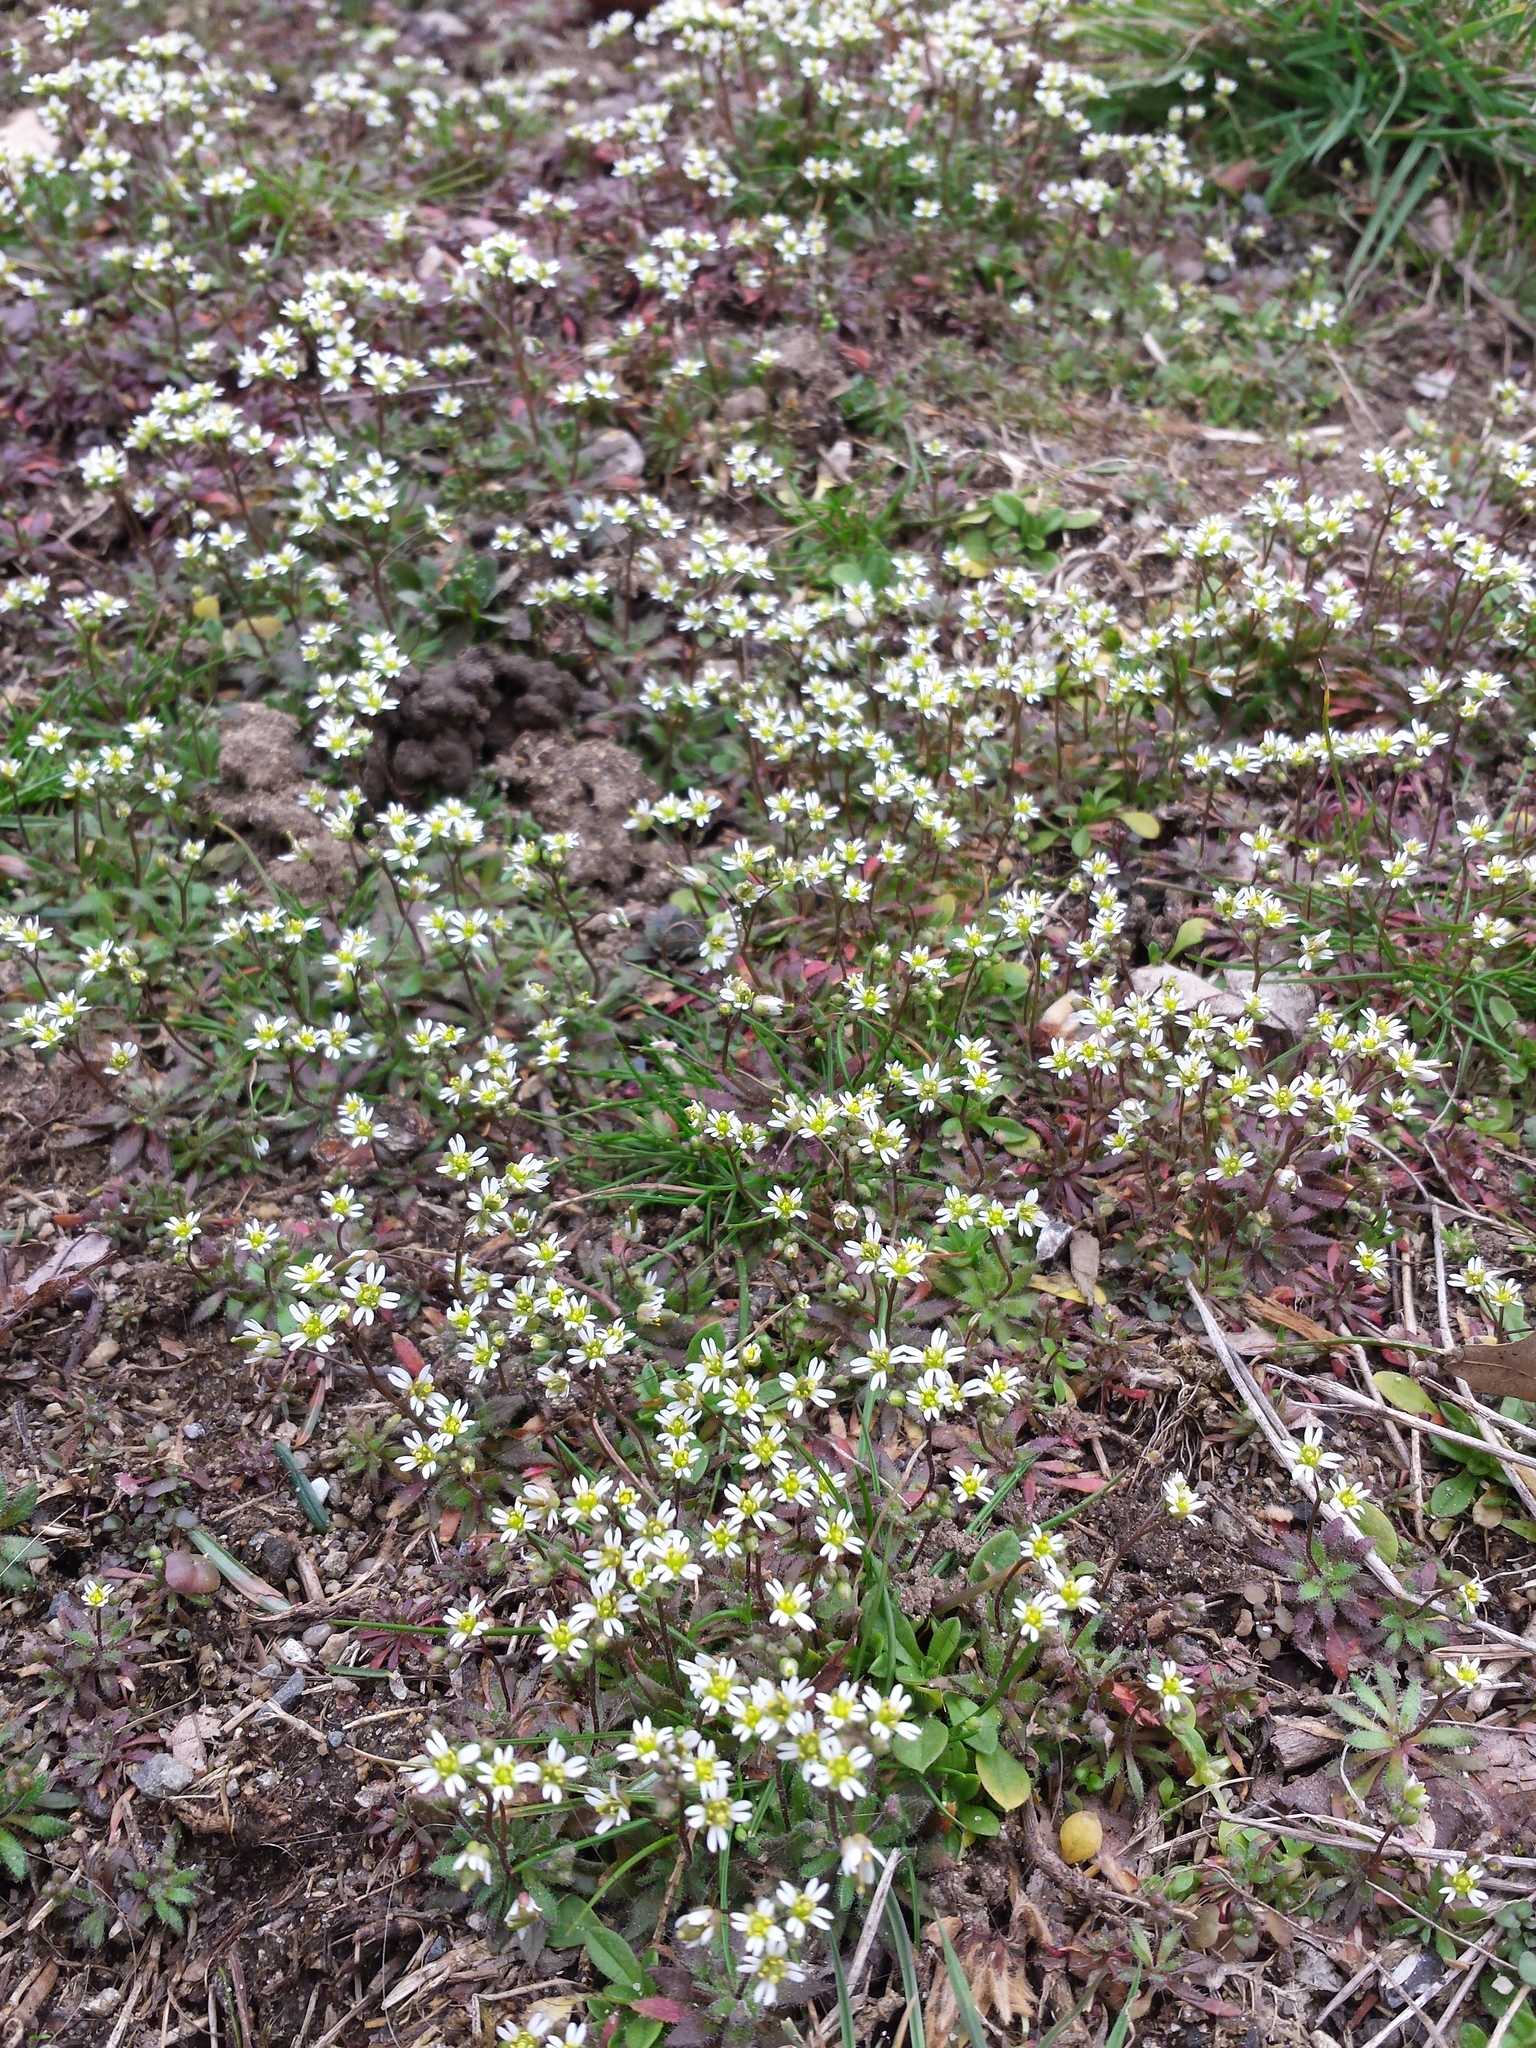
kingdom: Plantae
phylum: Tracheophyta
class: Magnoliopsida
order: Brassicales
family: Brassicaceae
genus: Draba
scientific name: Draba verna
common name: Spring draba
